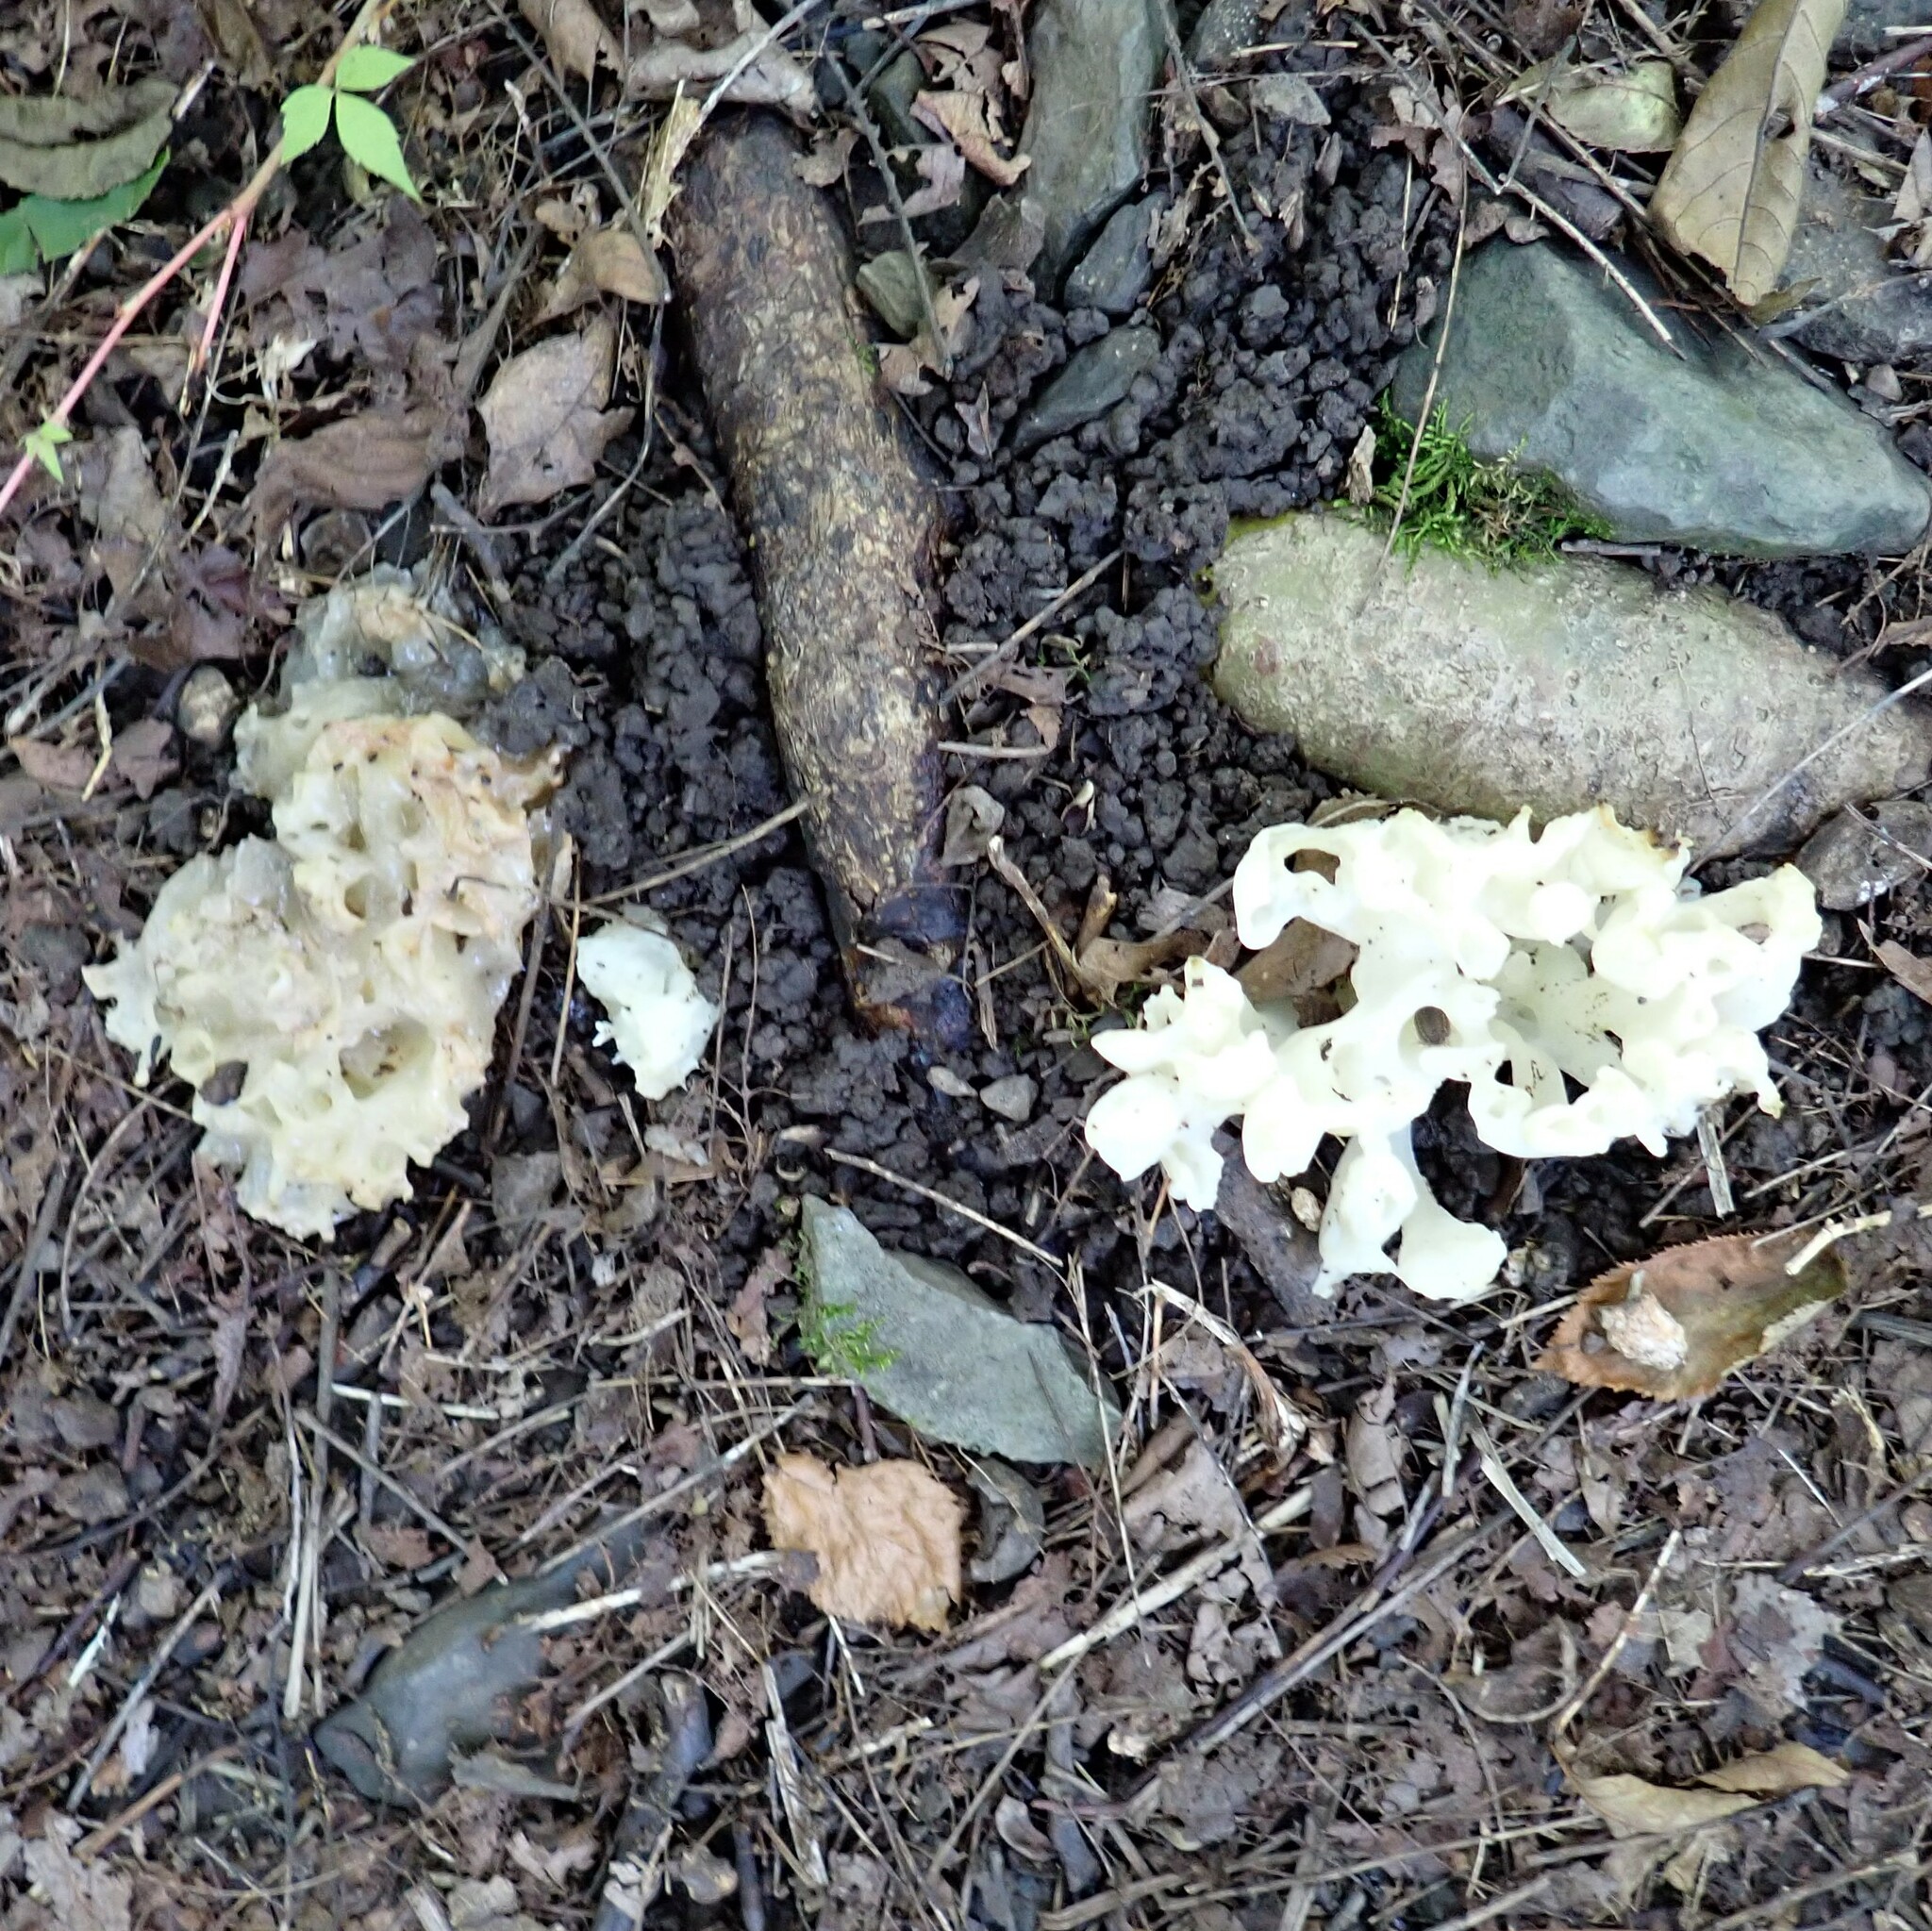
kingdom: Fungi
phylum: Basidiomycota
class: Agaricomycetes
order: Sebacinales
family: Sebacinaceae
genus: Sebacina
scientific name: Sebacina sparassoidea
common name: White coral jelly fungus
